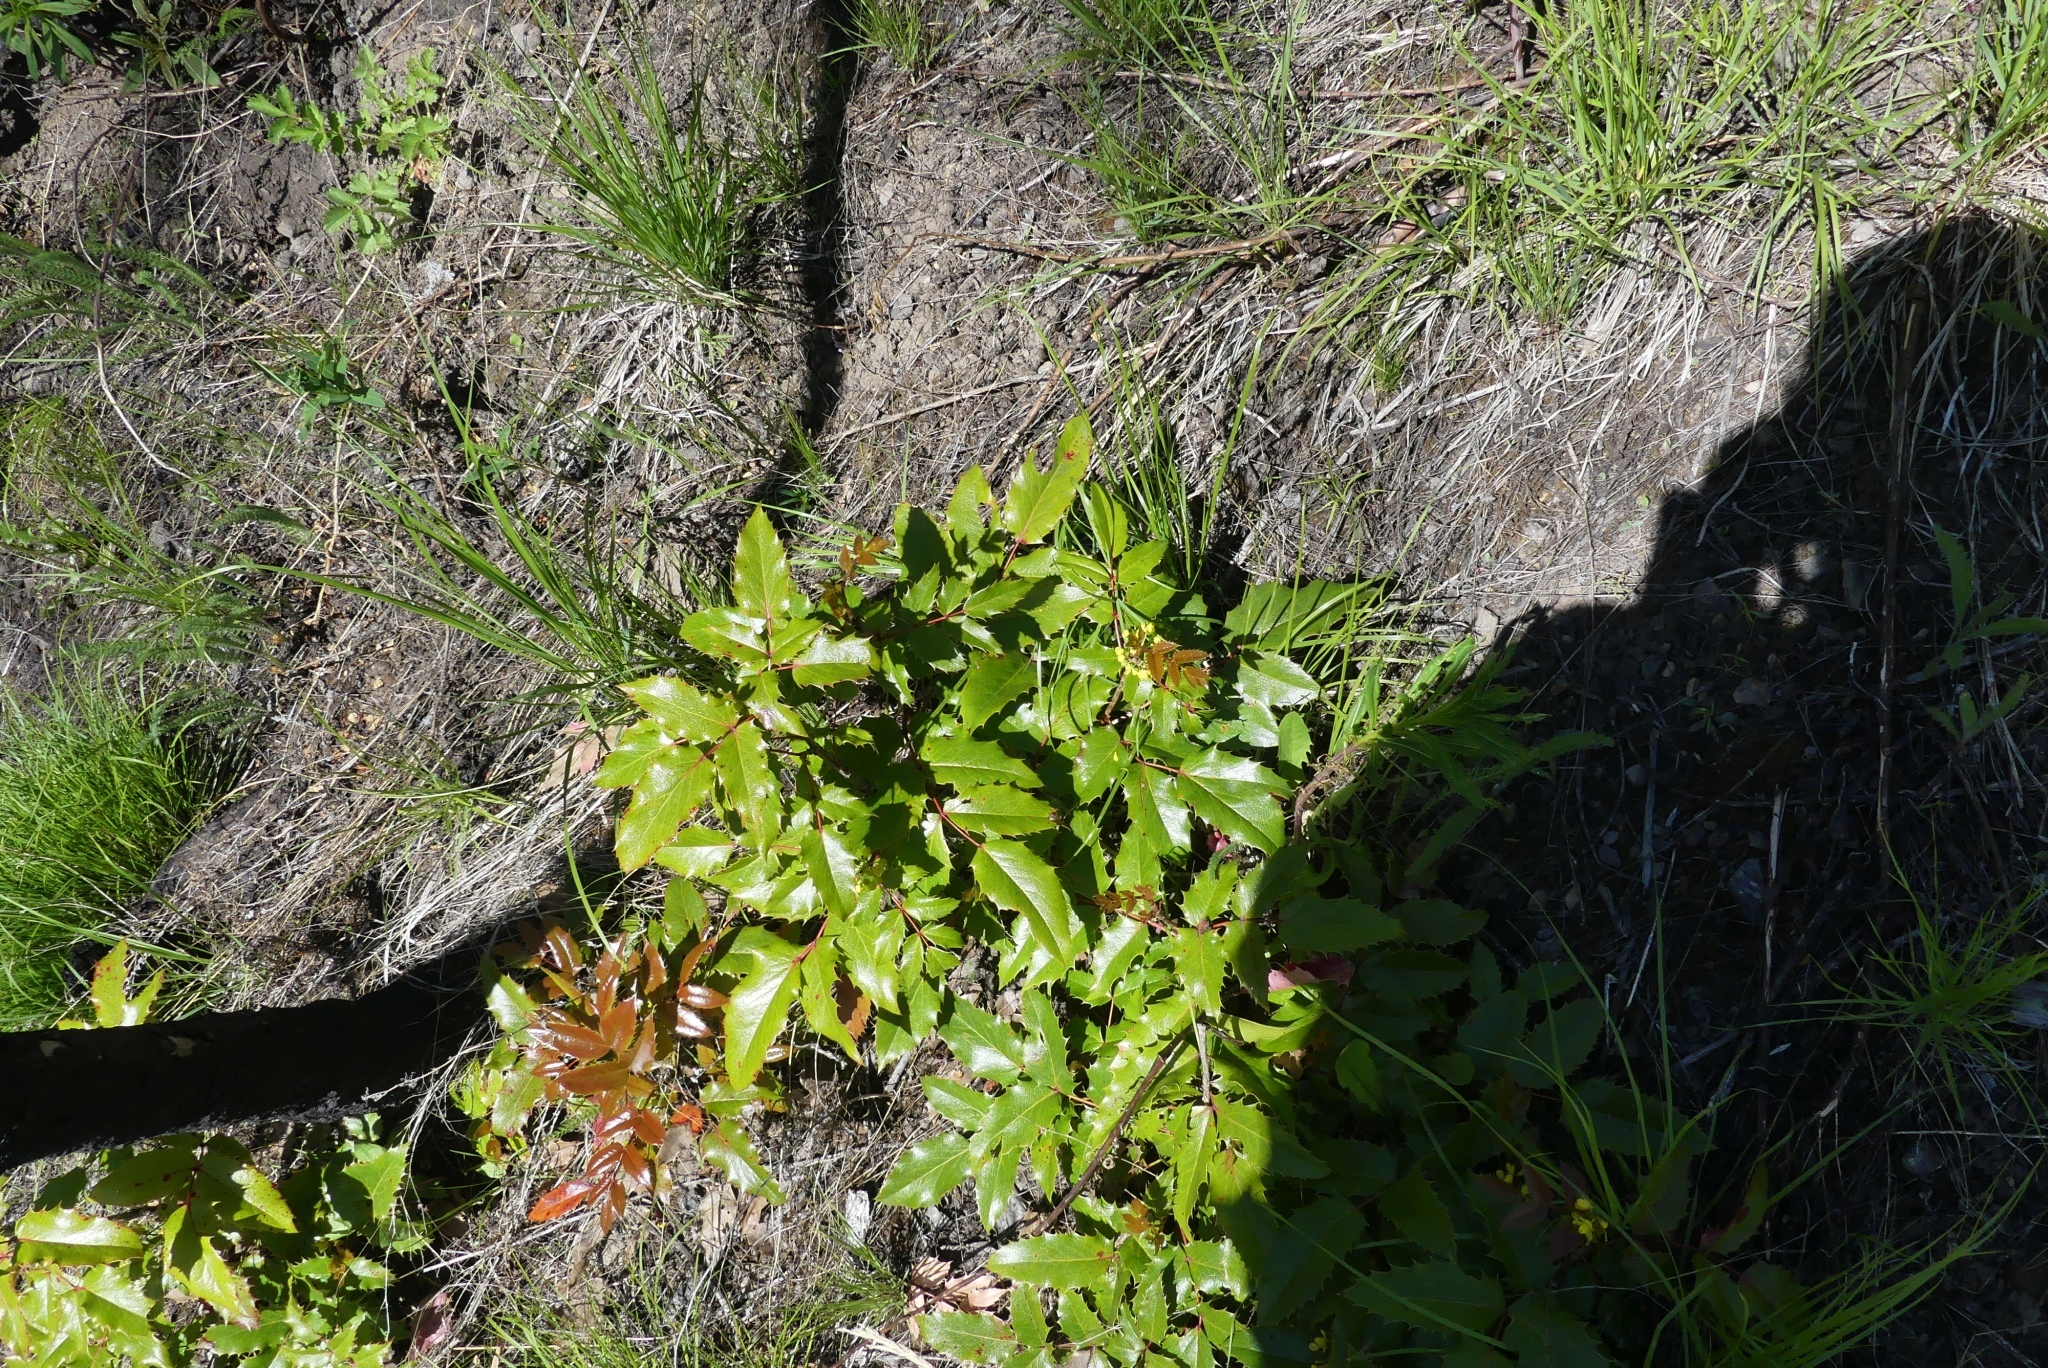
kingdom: Plantae
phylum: Tracheophyta
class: Magnoliopsida
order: Ranunculales
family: Berberidaceae
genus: Mahonia
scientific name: Mahonia aquifolium
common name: Oregon-grape
